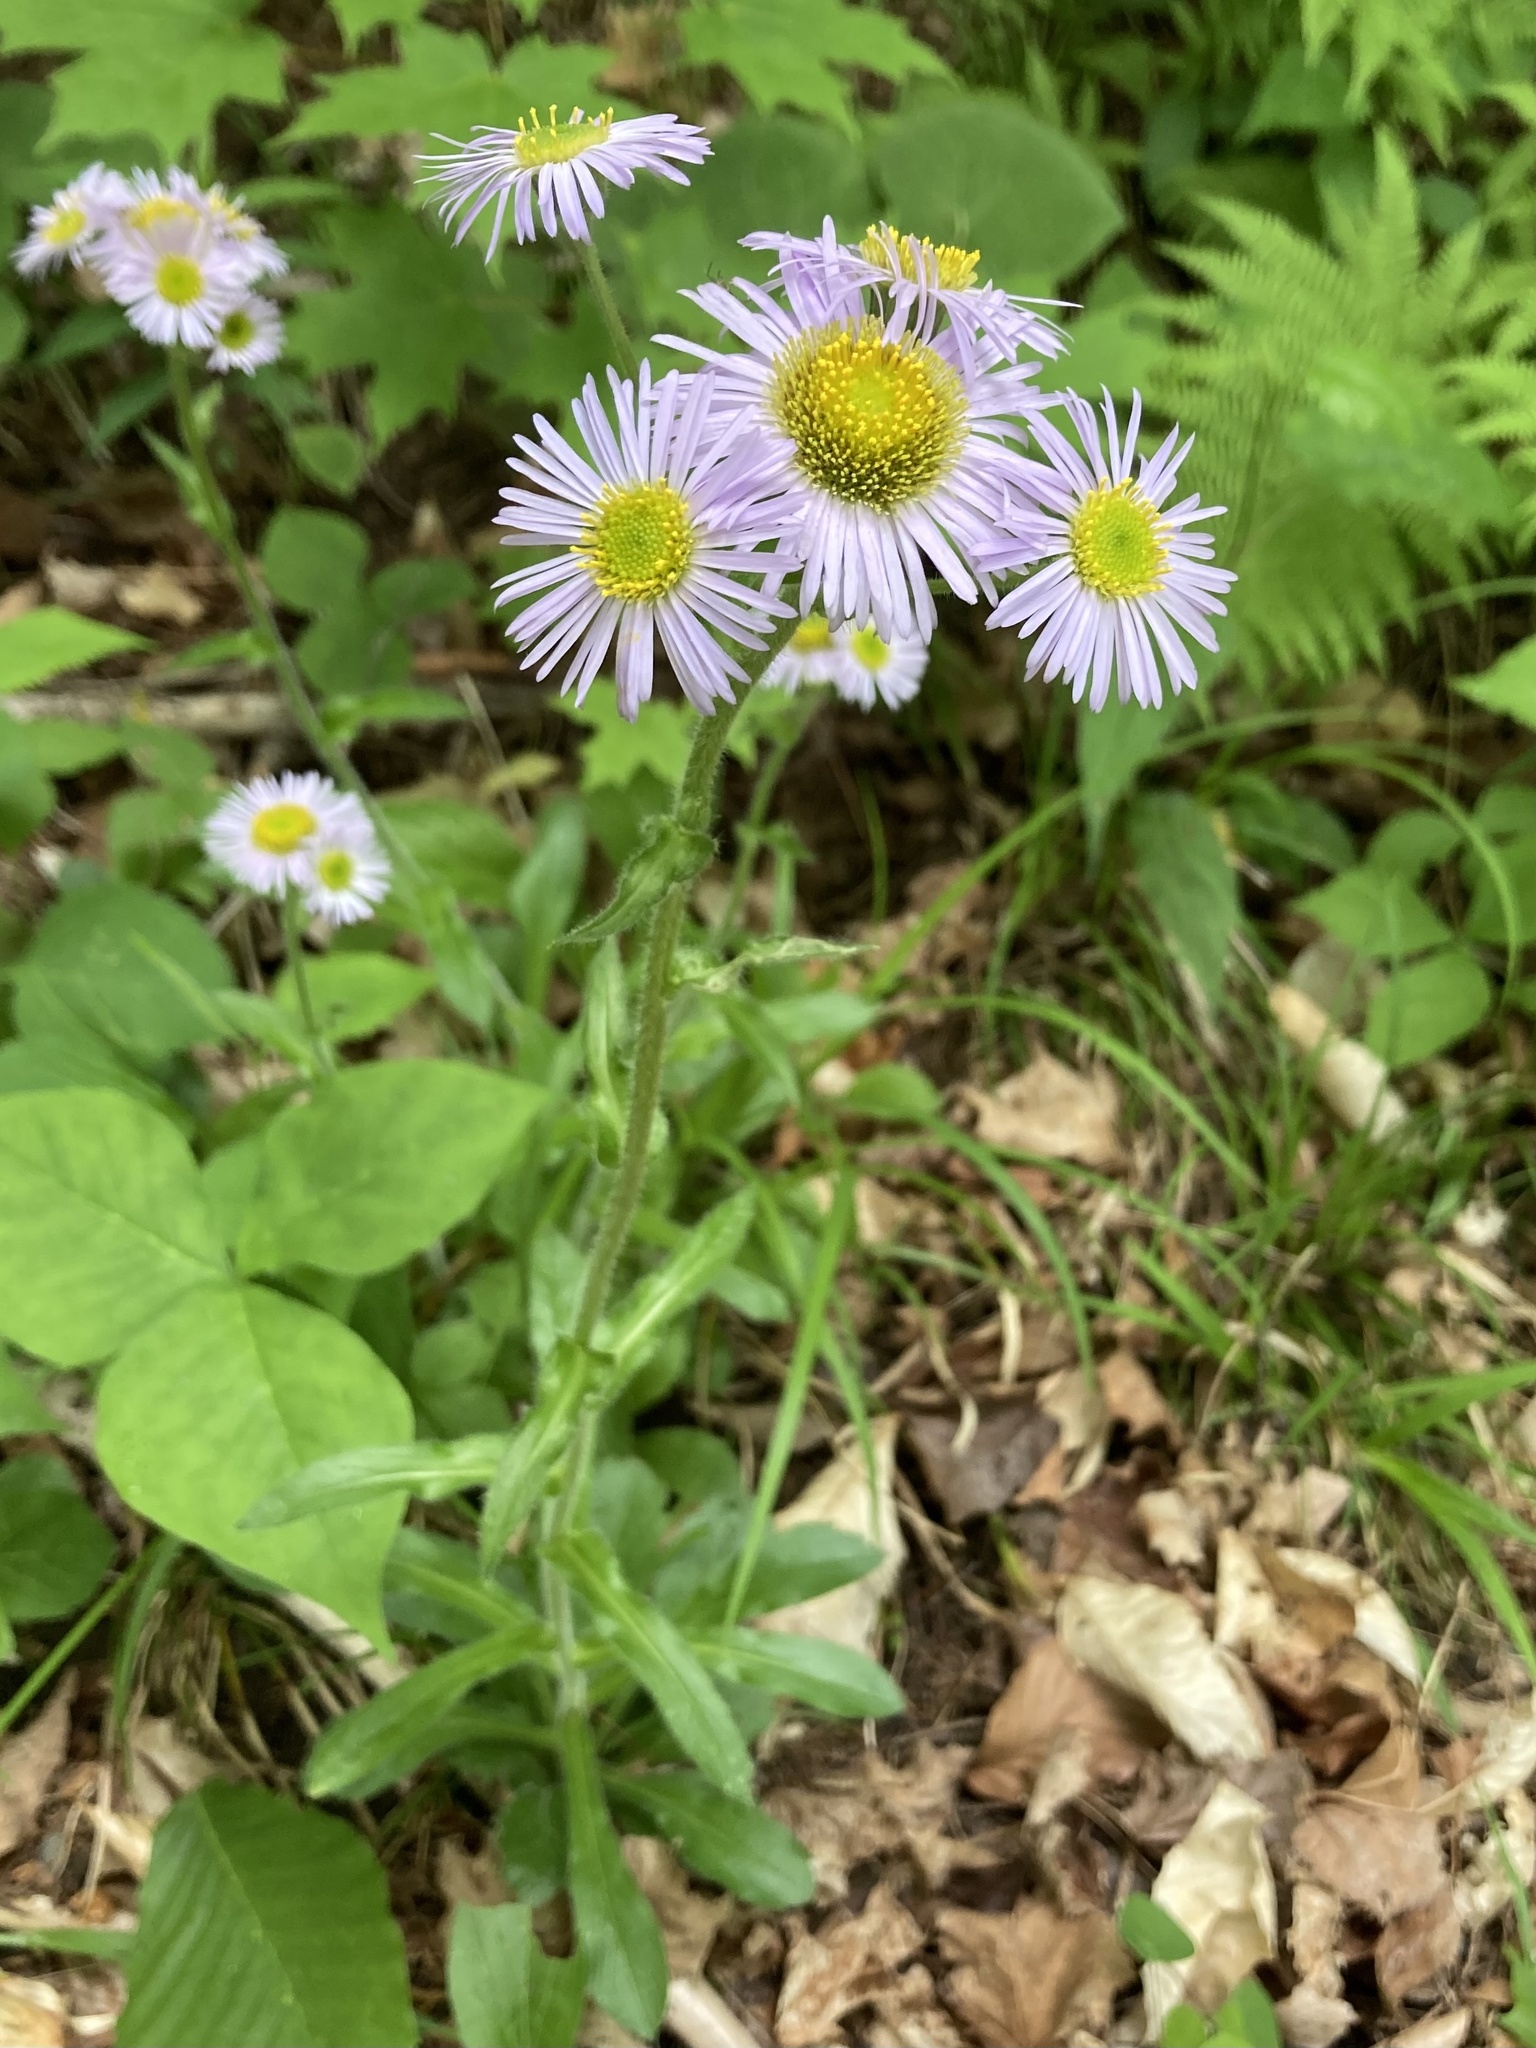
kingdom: Plantae
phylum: Tracheophyta
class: Magnoliopsida
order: Asterales
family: Asteraceae
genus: Erigeron
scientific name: Erigeron pulchellus
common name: Hairy fleabane
